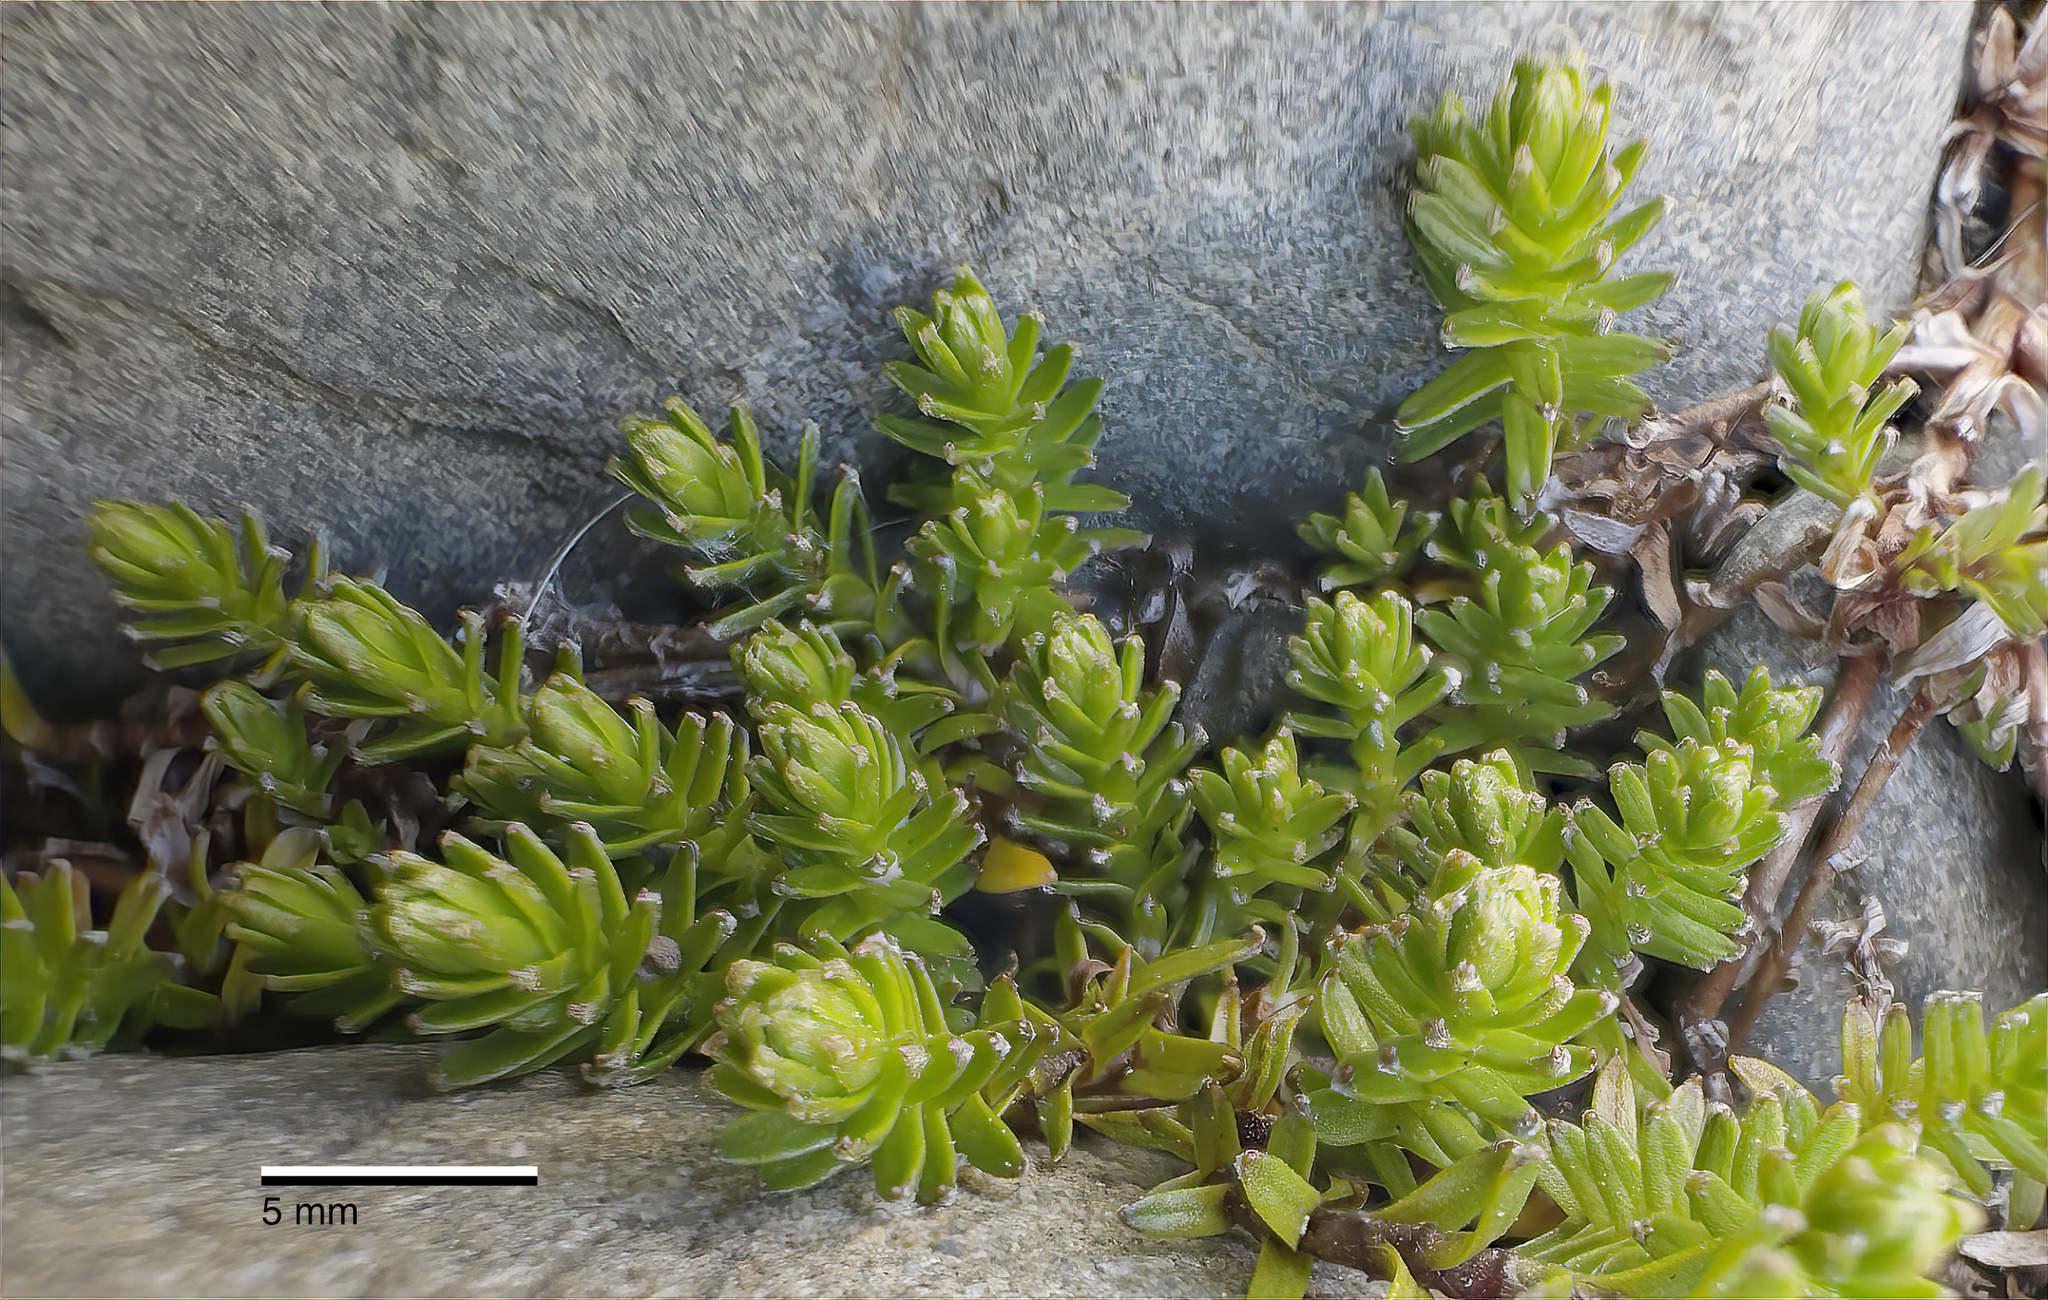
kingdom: Plantae
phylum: Tracheophyta
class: Magnoliopsida
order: Asterales
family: Asteraceae
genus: Raoulia
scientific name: Raoulia glabra
